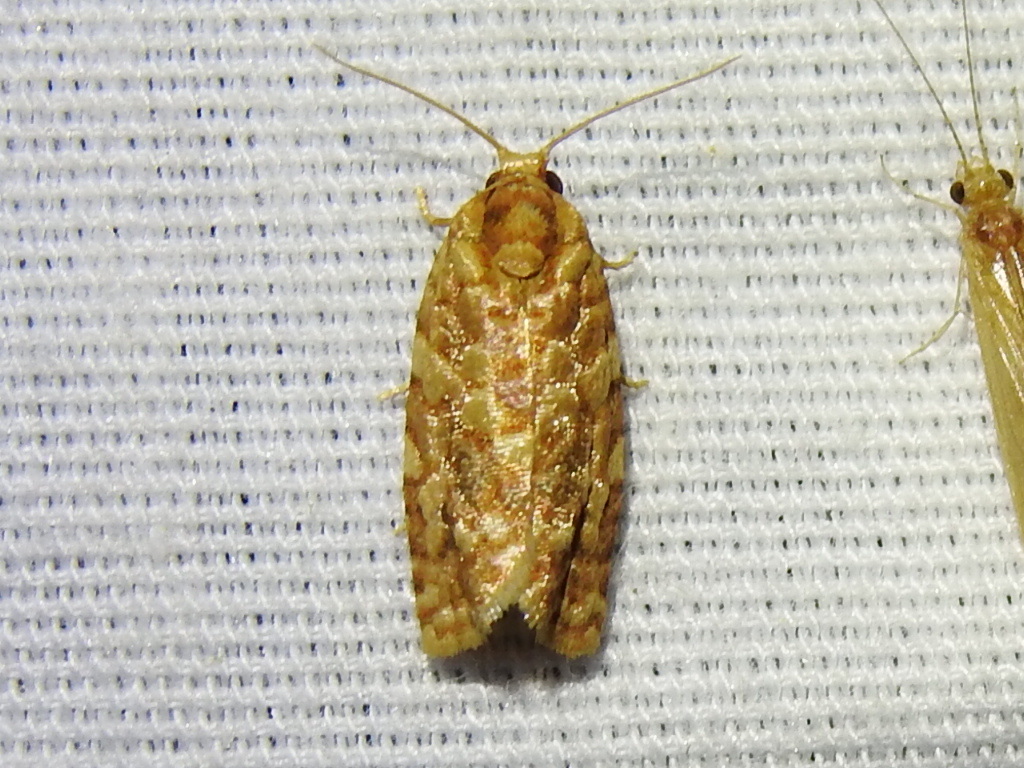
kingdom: Animalia
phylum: Arthropoda
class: Insecta
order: Lepidoptera
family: Tortricidae
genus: Choristoneura
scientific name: Choristoneura houstonana
